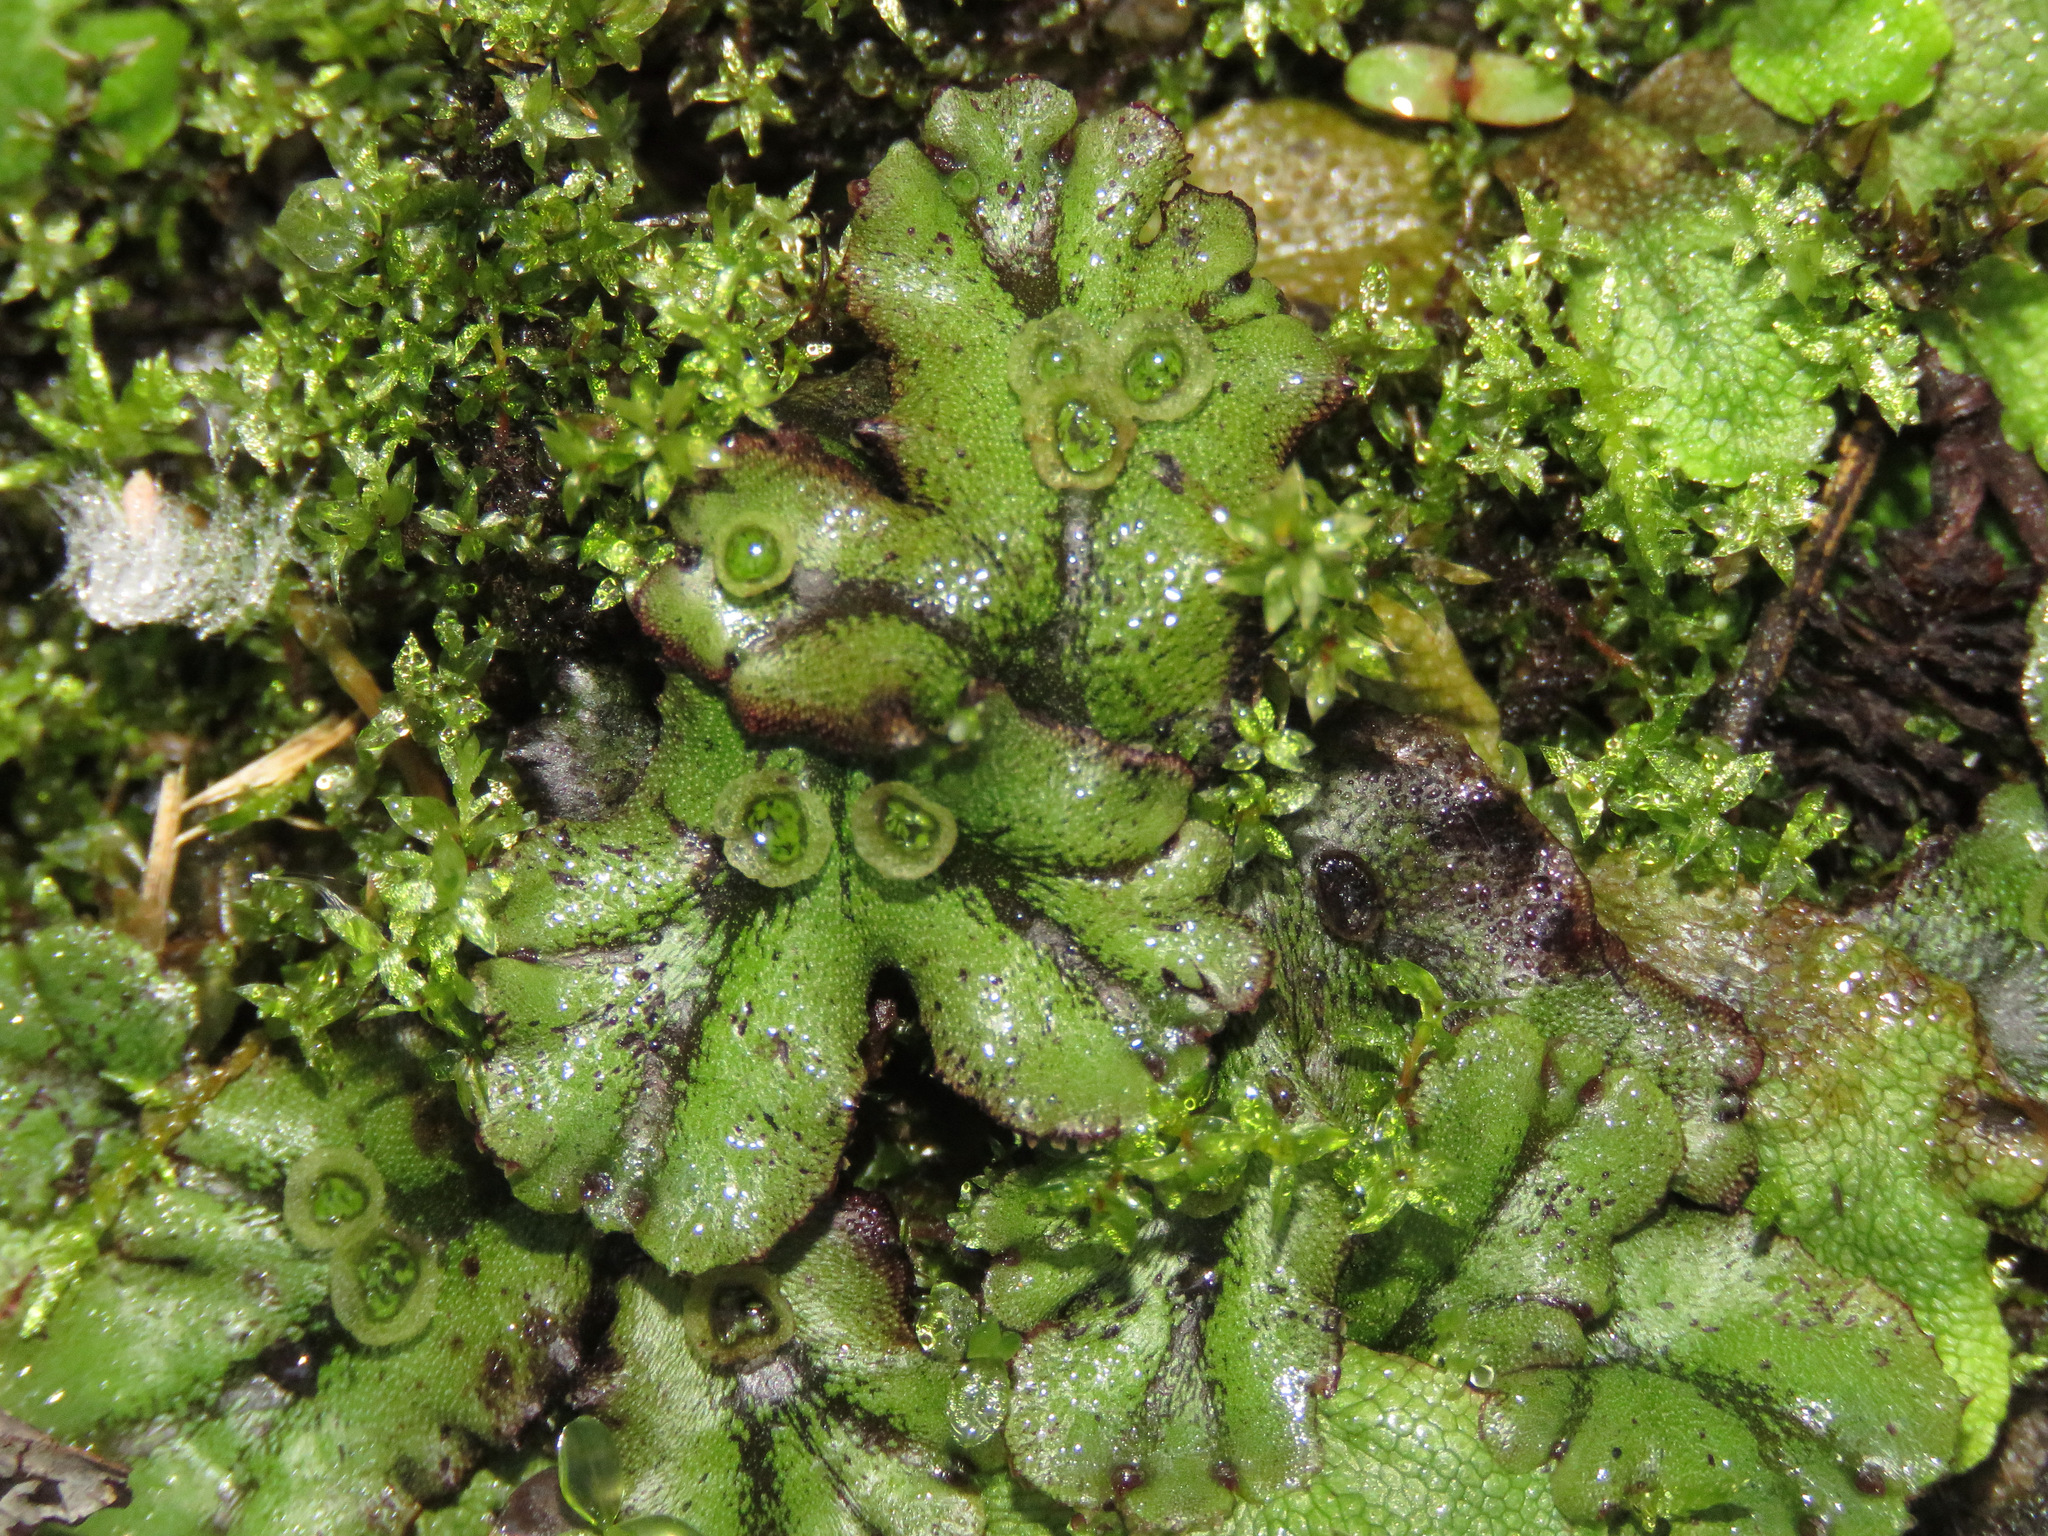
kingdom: Plantae
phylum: Marchantiophyta
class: Marchantiopsida
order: Marchantiales
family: Marchantiaceae
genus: Marchantia
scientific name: Marchantia polymorpha
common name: Common liverwort
